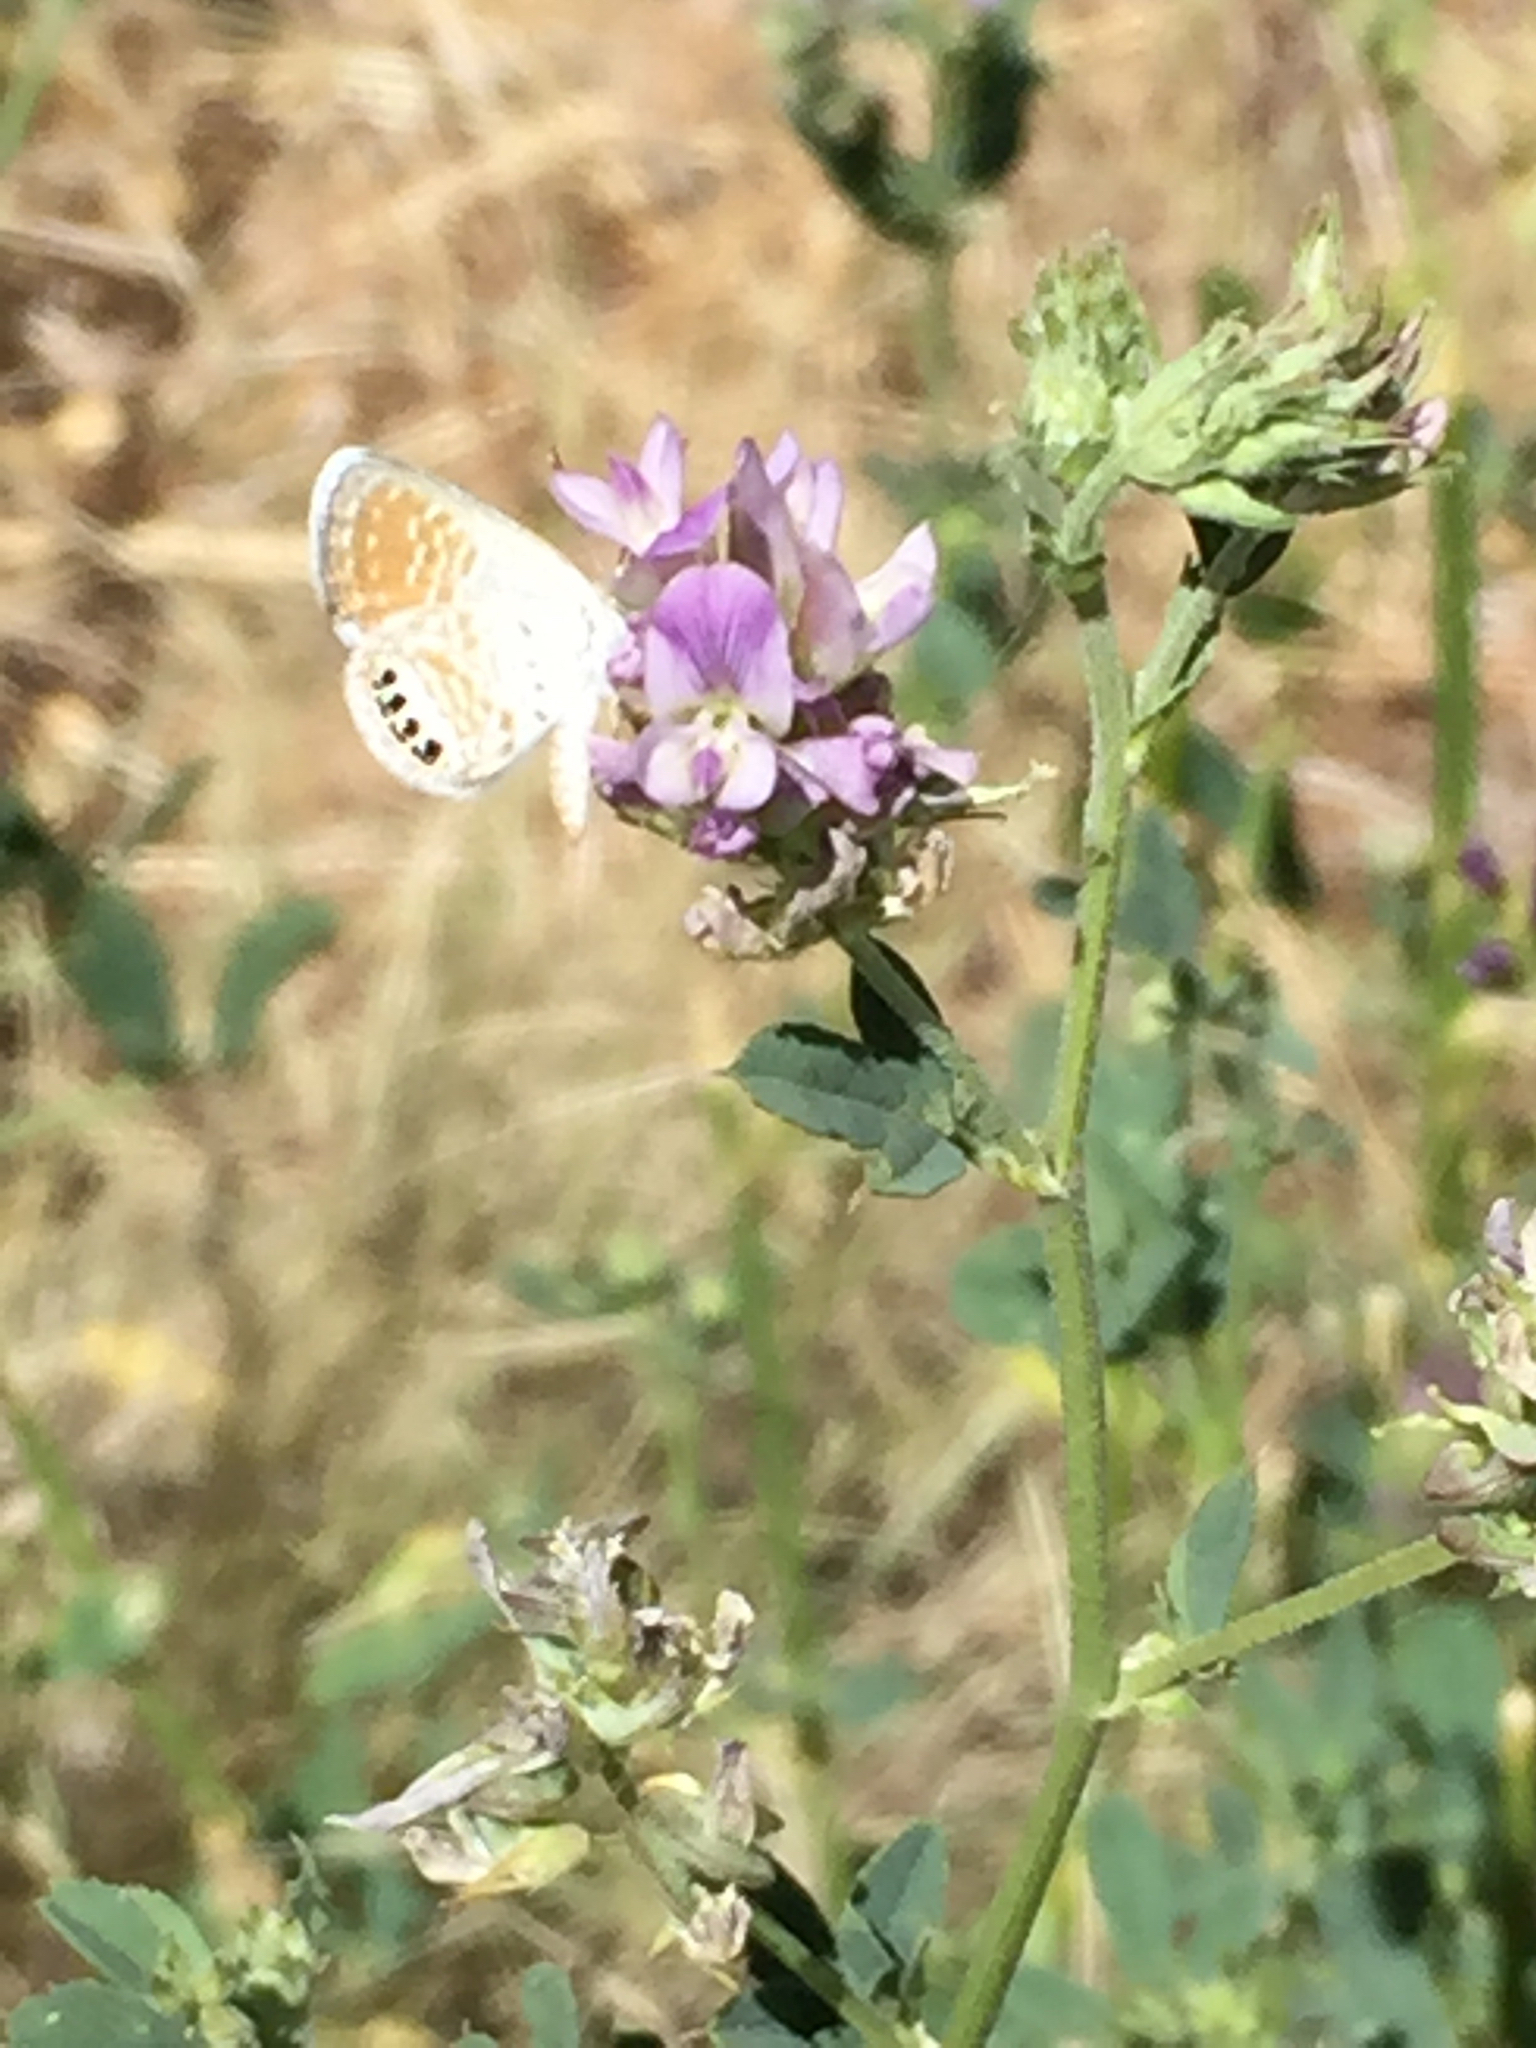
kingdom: Animalia
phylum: Arthropoda
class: Insecta
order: Lepidoptera
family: Lycaenidae
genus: Brephidium
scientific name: Brephidium exilis
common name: Pygmy blue
